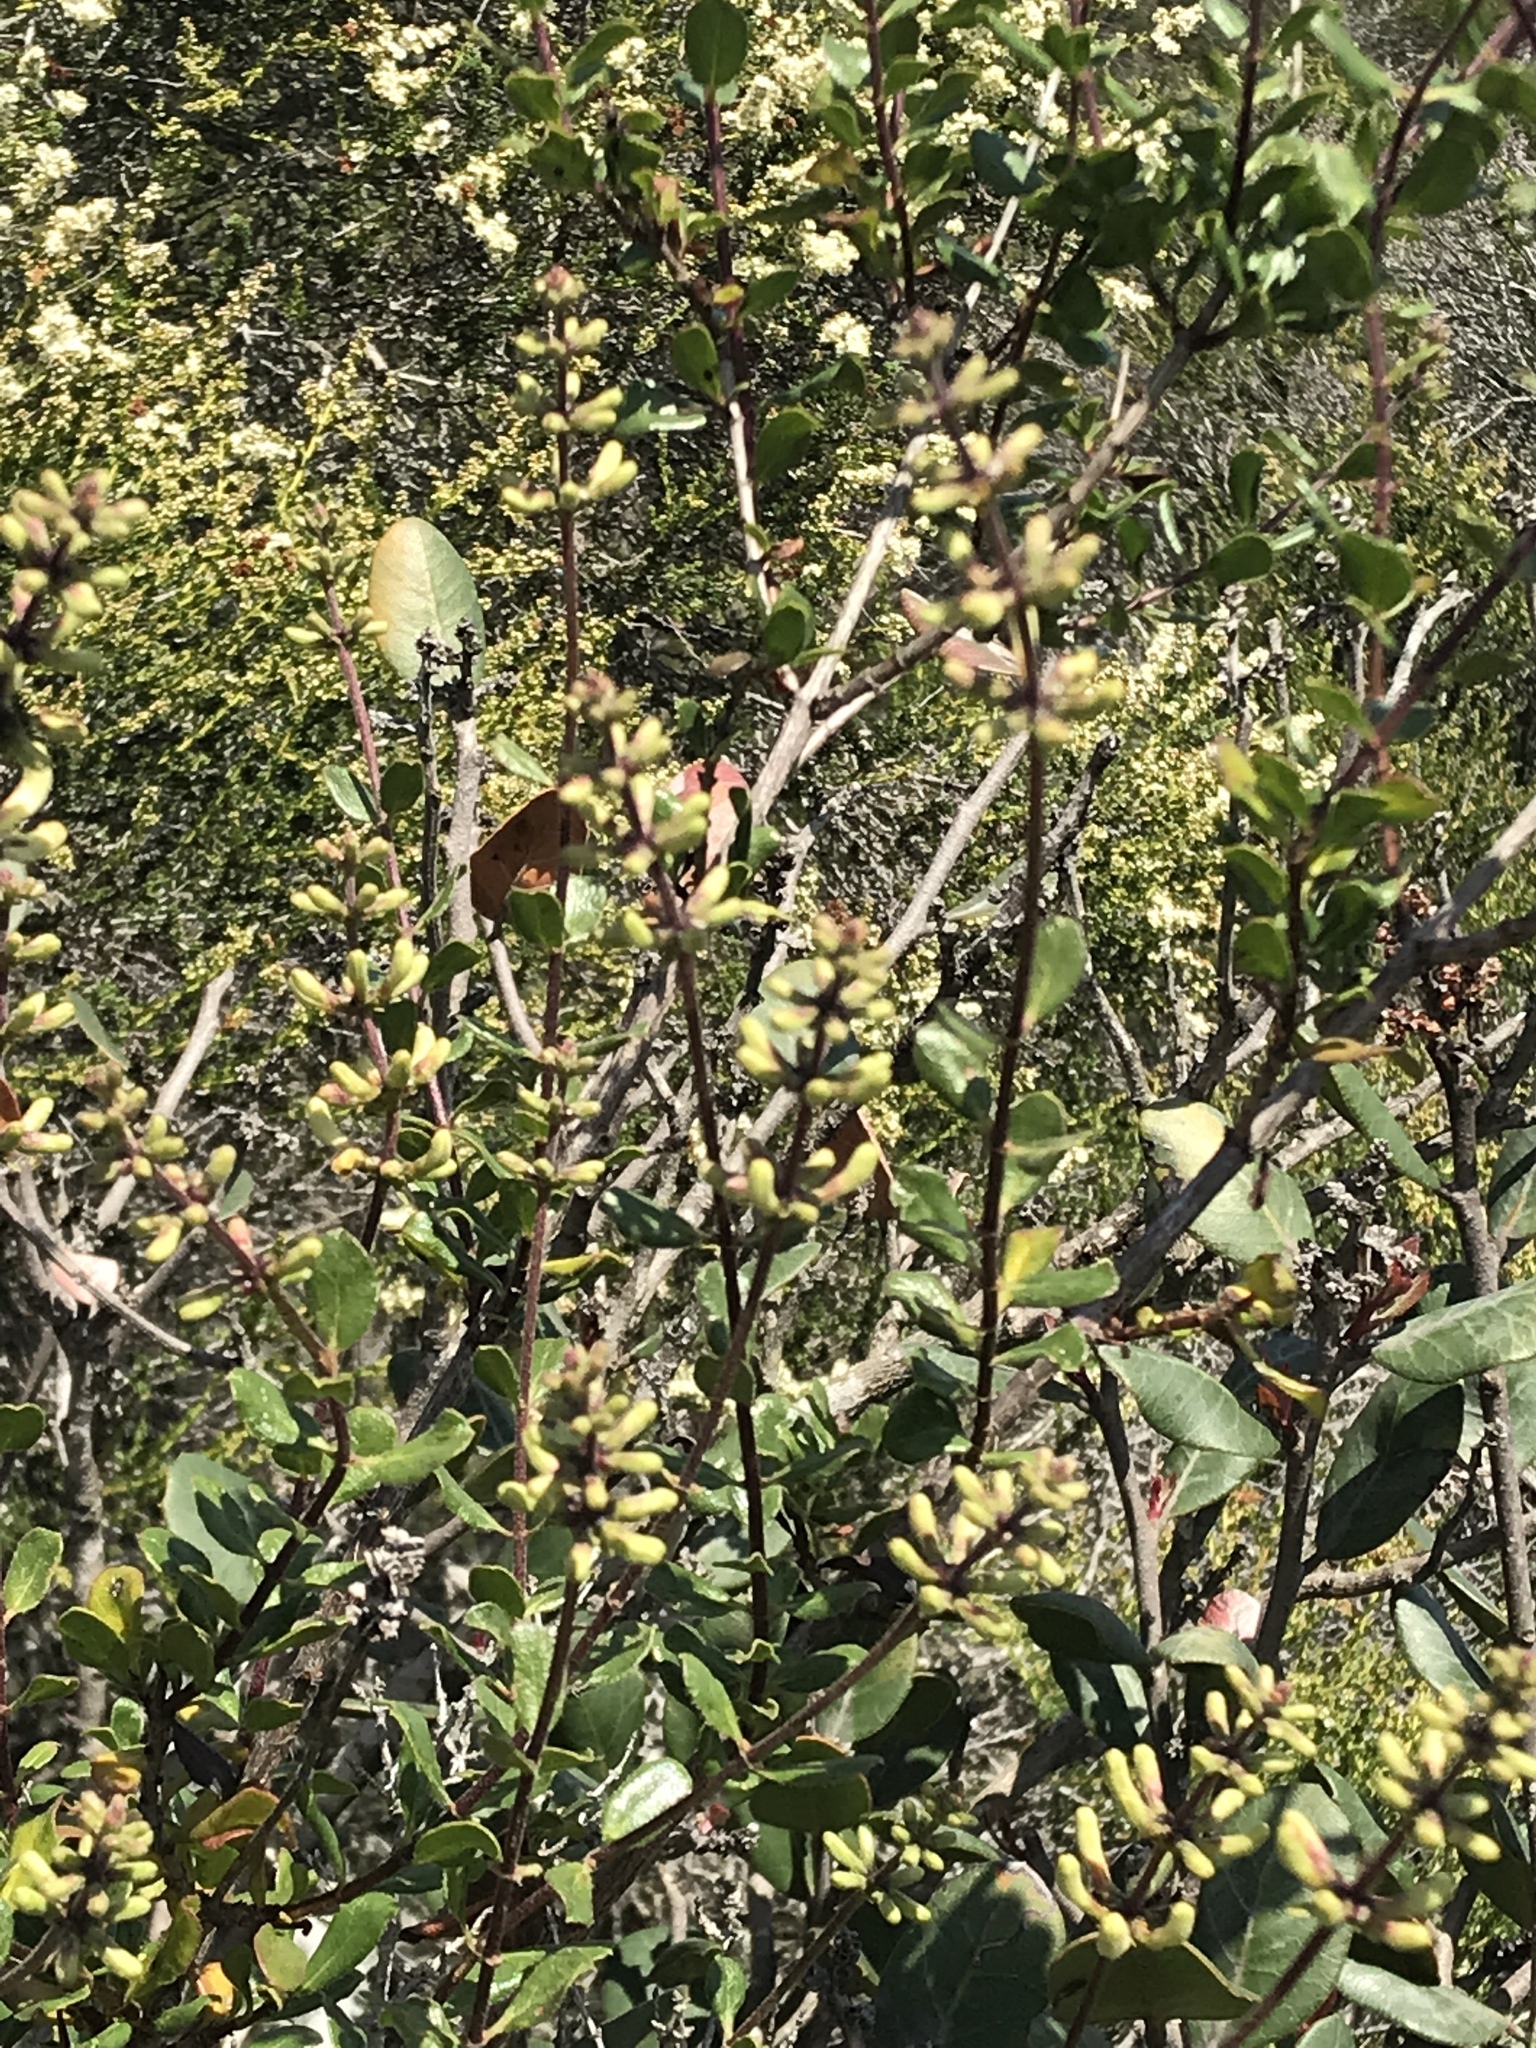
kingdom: Plantae
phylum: Tracheophyta
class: Magnoliopsida
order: Dipsacales
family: Caprifoliaceae
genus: Lonicera
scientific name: Lonicera subspicata
